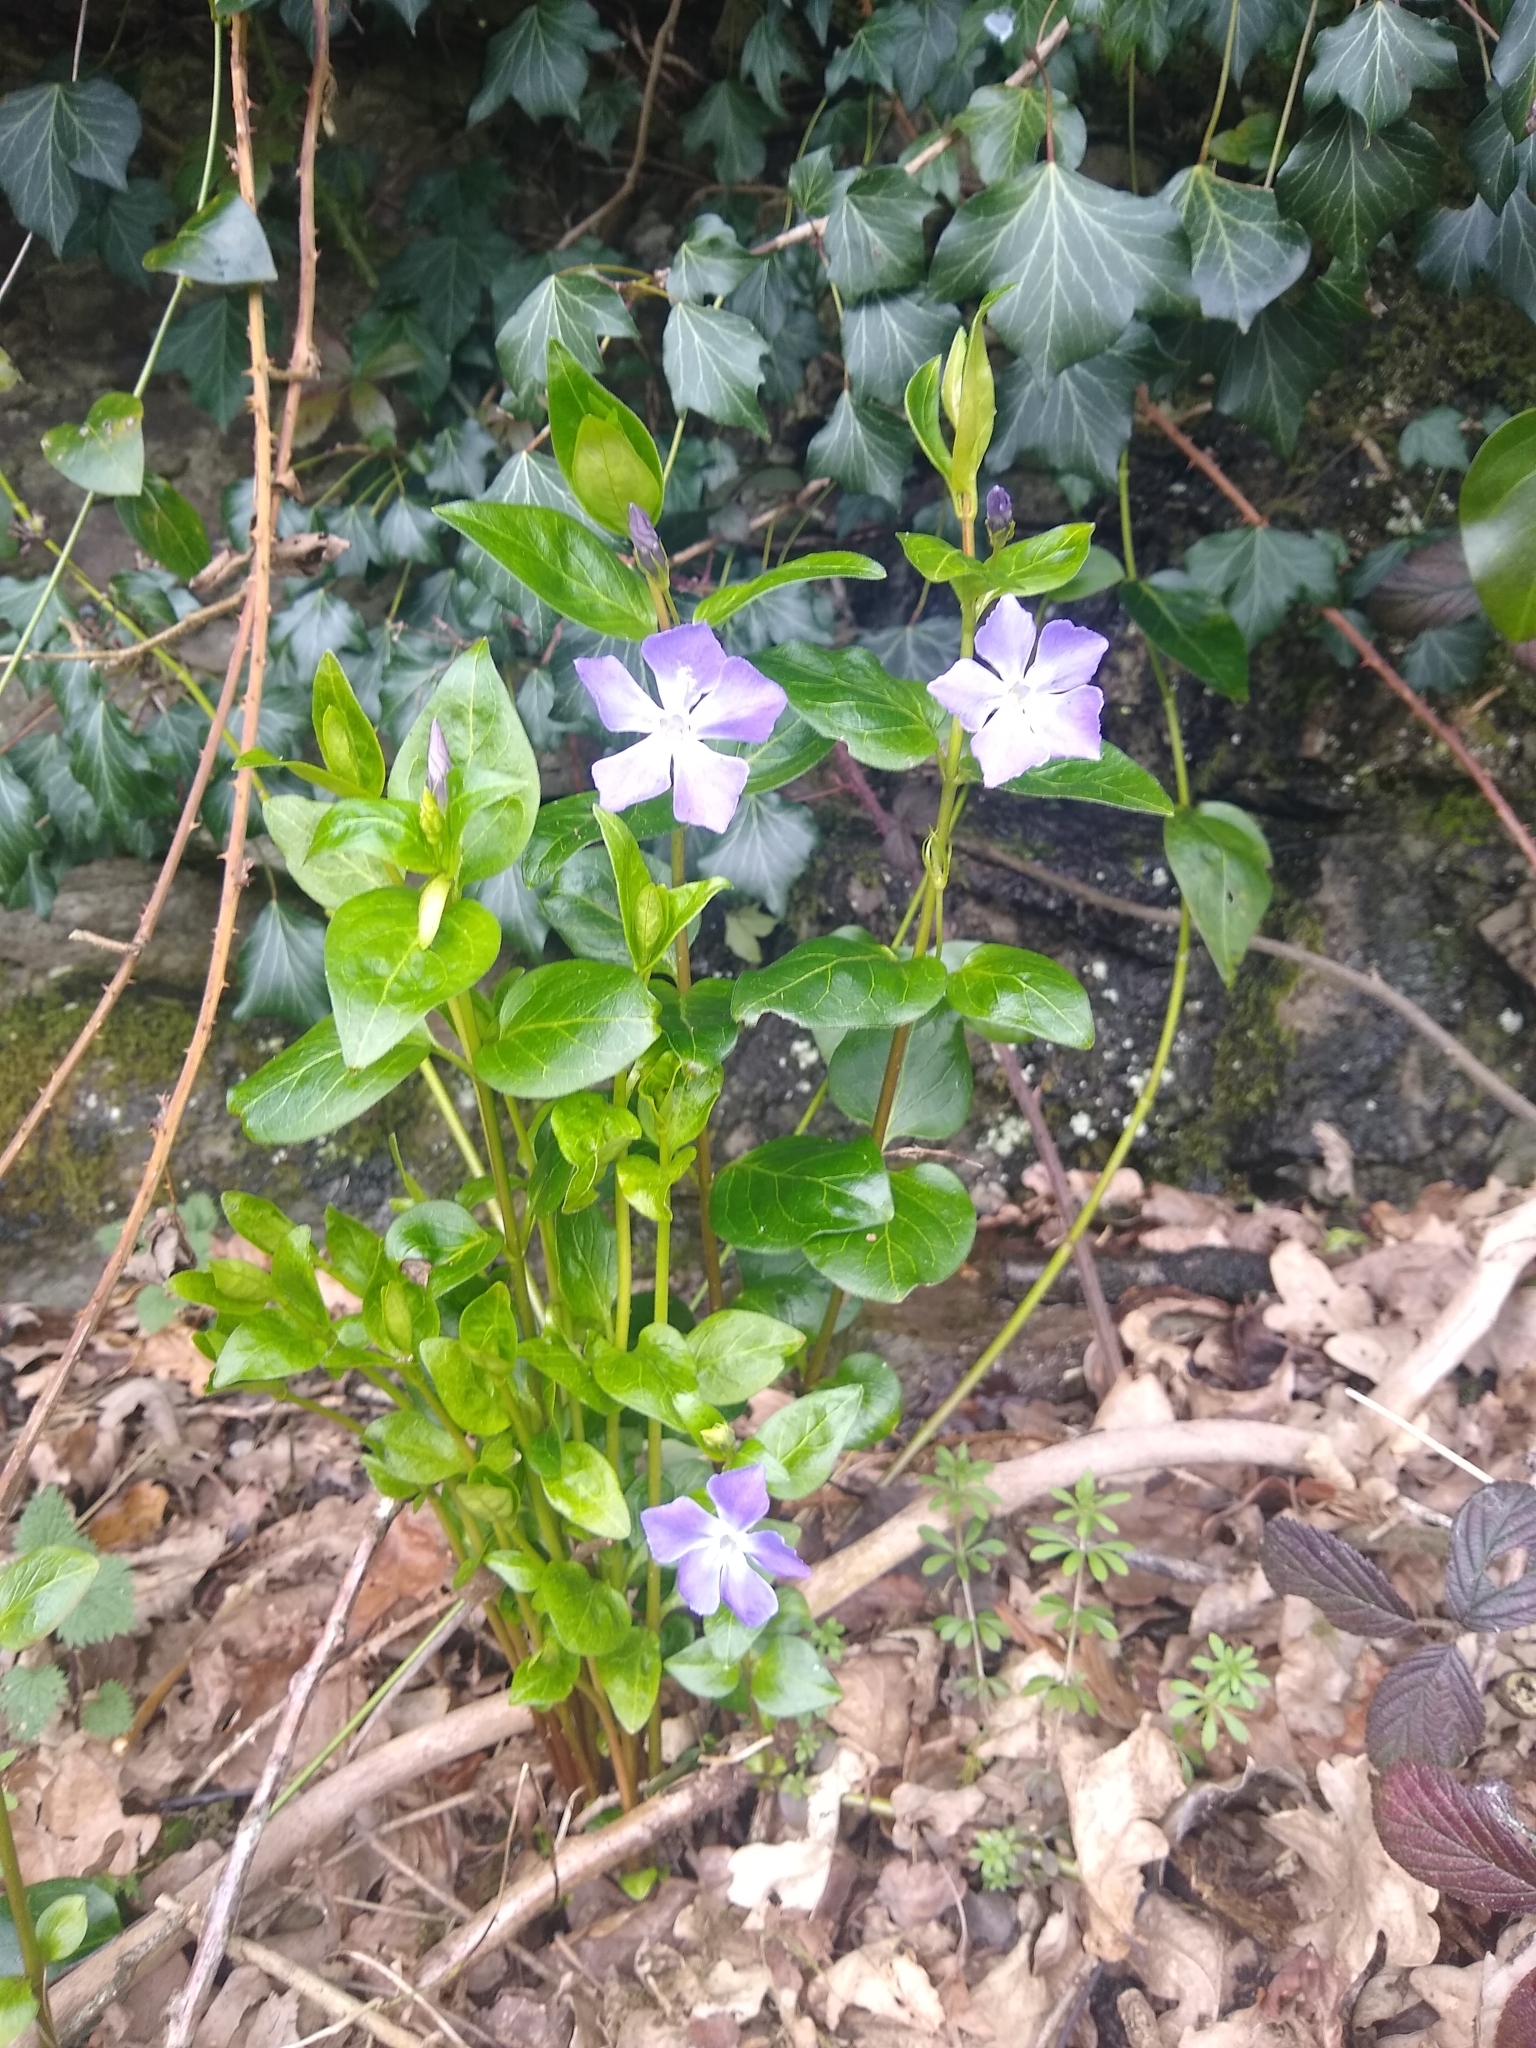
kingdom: Plantae
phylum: Tracheophyta
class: Magnoliopsida
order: Gentianales
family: Apocynaceae
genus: Vinca
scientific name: Vinca major
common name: Greater periwinkle
